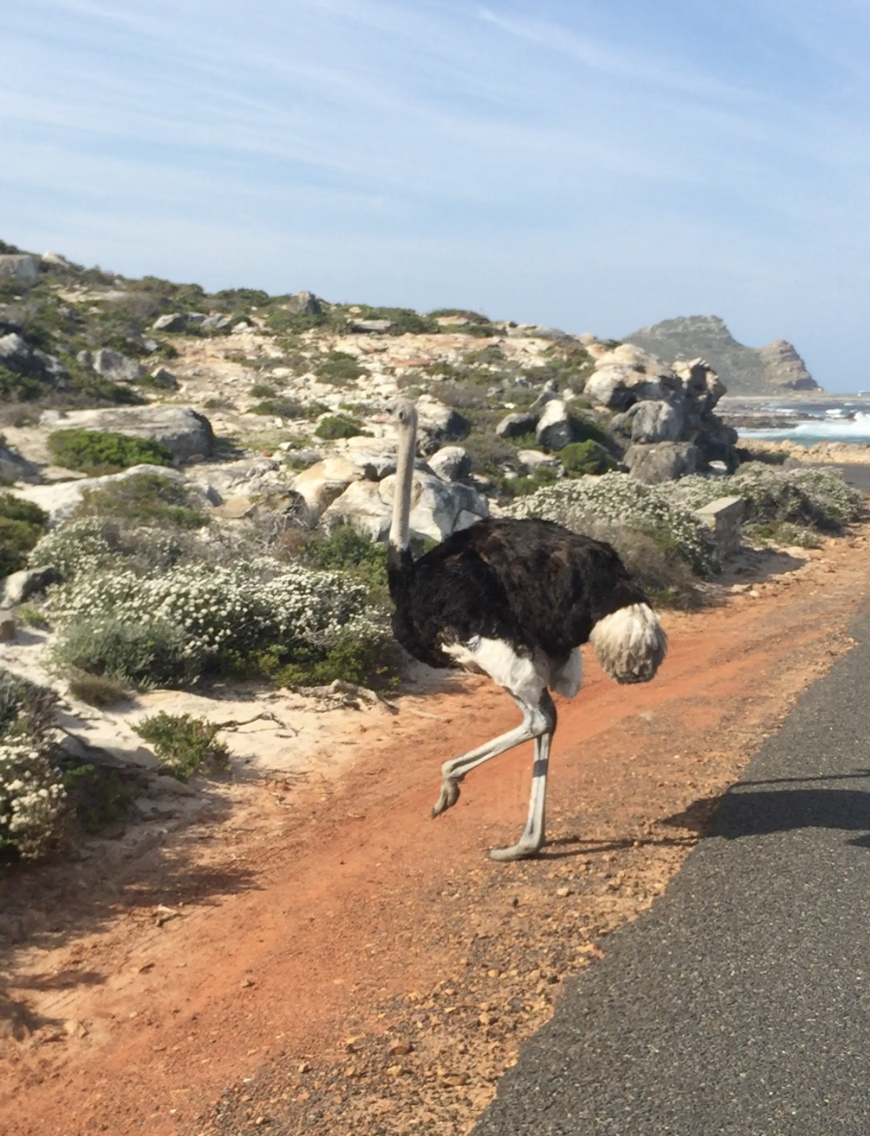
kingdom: Animalia
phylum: Chordata
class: Aves
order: Struthioniformes
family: Struthionidae
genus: Struthio
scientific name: Struthio camelus
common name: Common ostrich
